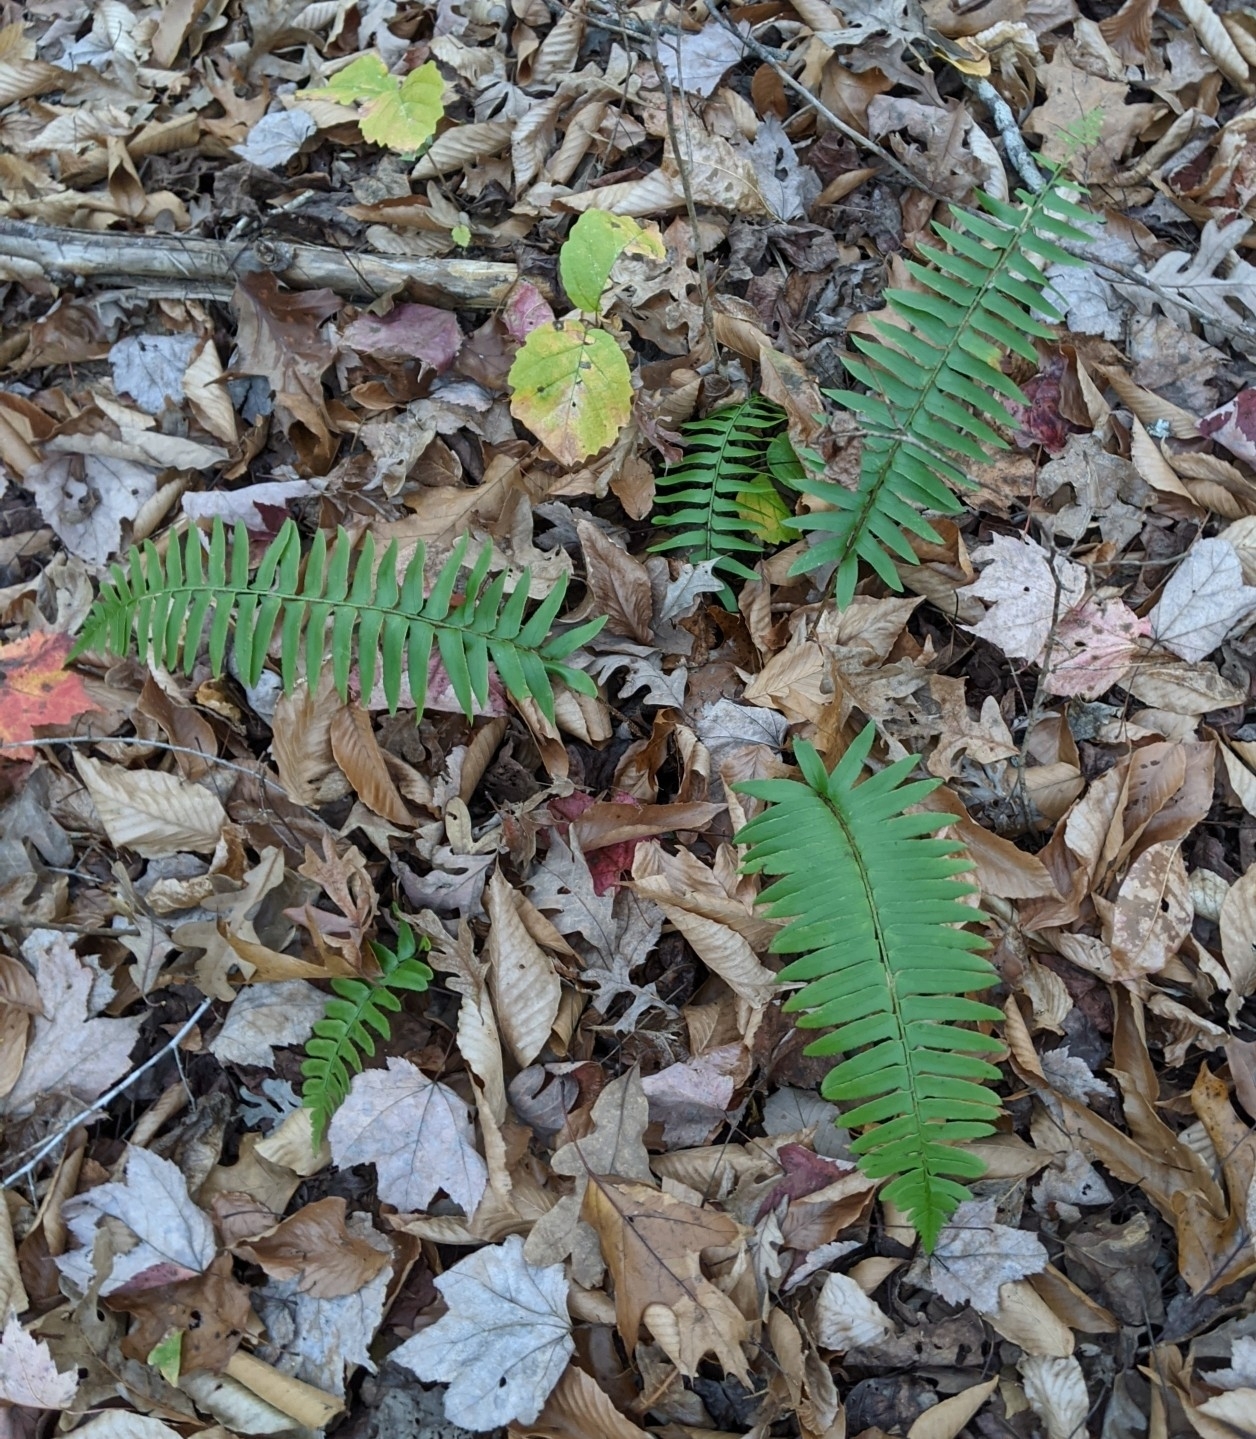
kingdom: Plantae
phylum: Tracheophyta
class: Polypodiopsida
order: Polypodiales
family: Dryopteridaceae
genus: Polystichum
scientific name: Polystichum acrostichoides
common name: Christmas fern
